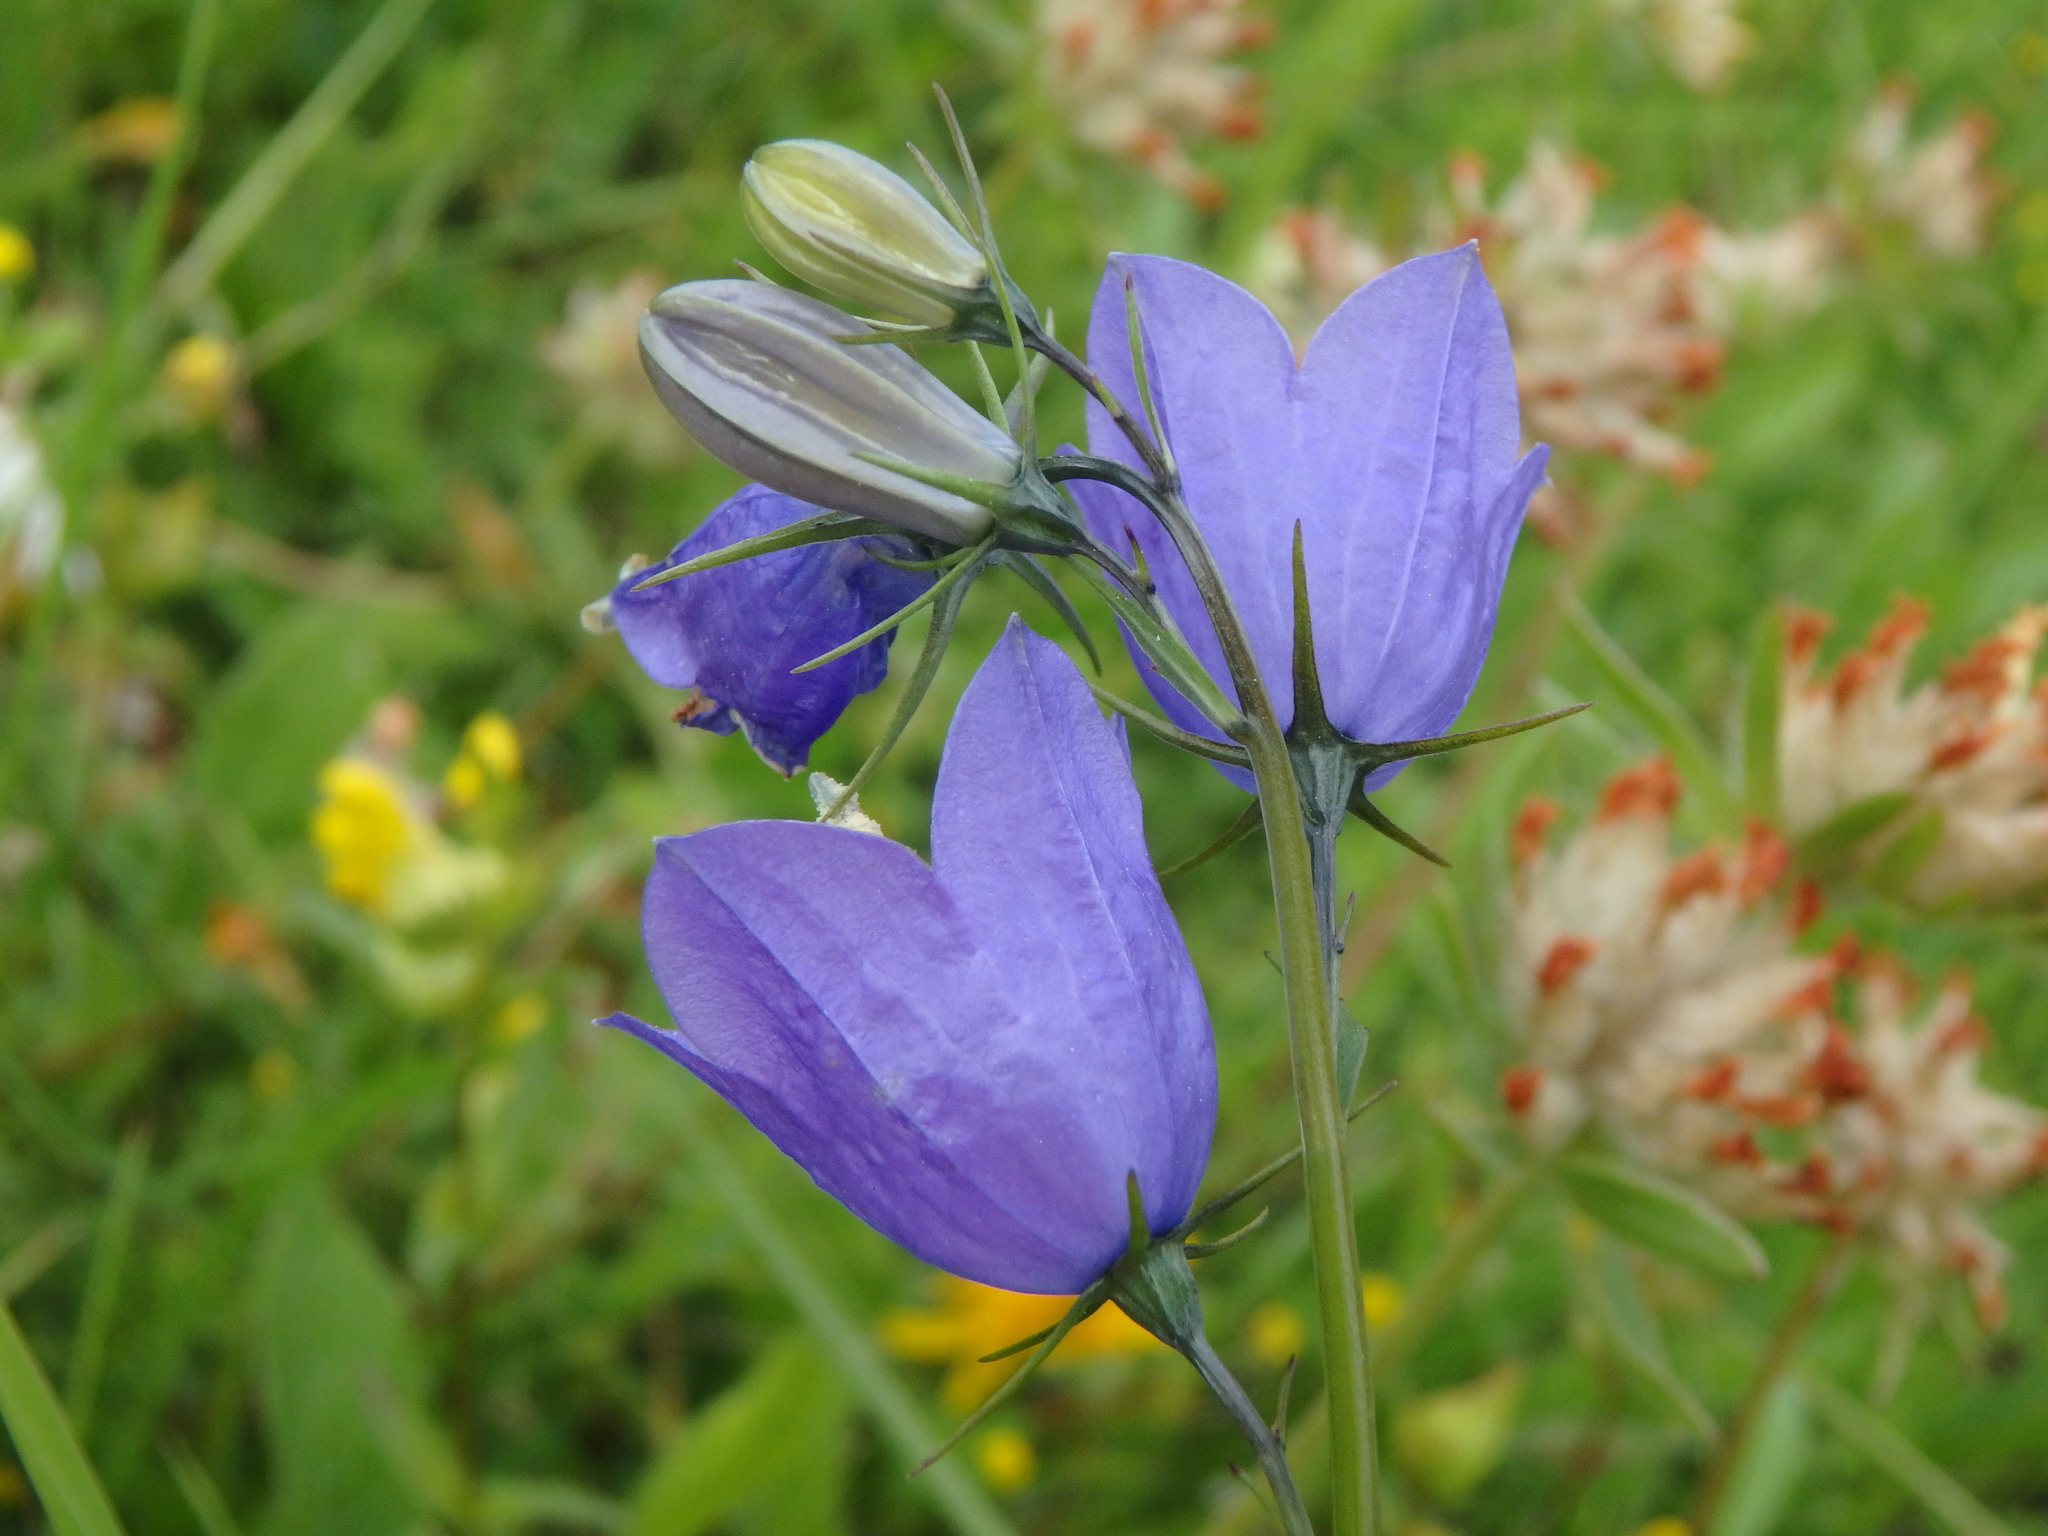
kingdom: Plantae
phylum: Tracheophyta
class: Magnoliopsida
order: Asterales
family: Campanulaceae
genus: Campanula
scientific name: Campanula rhomboidalis
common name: Broad-leaved harebell
